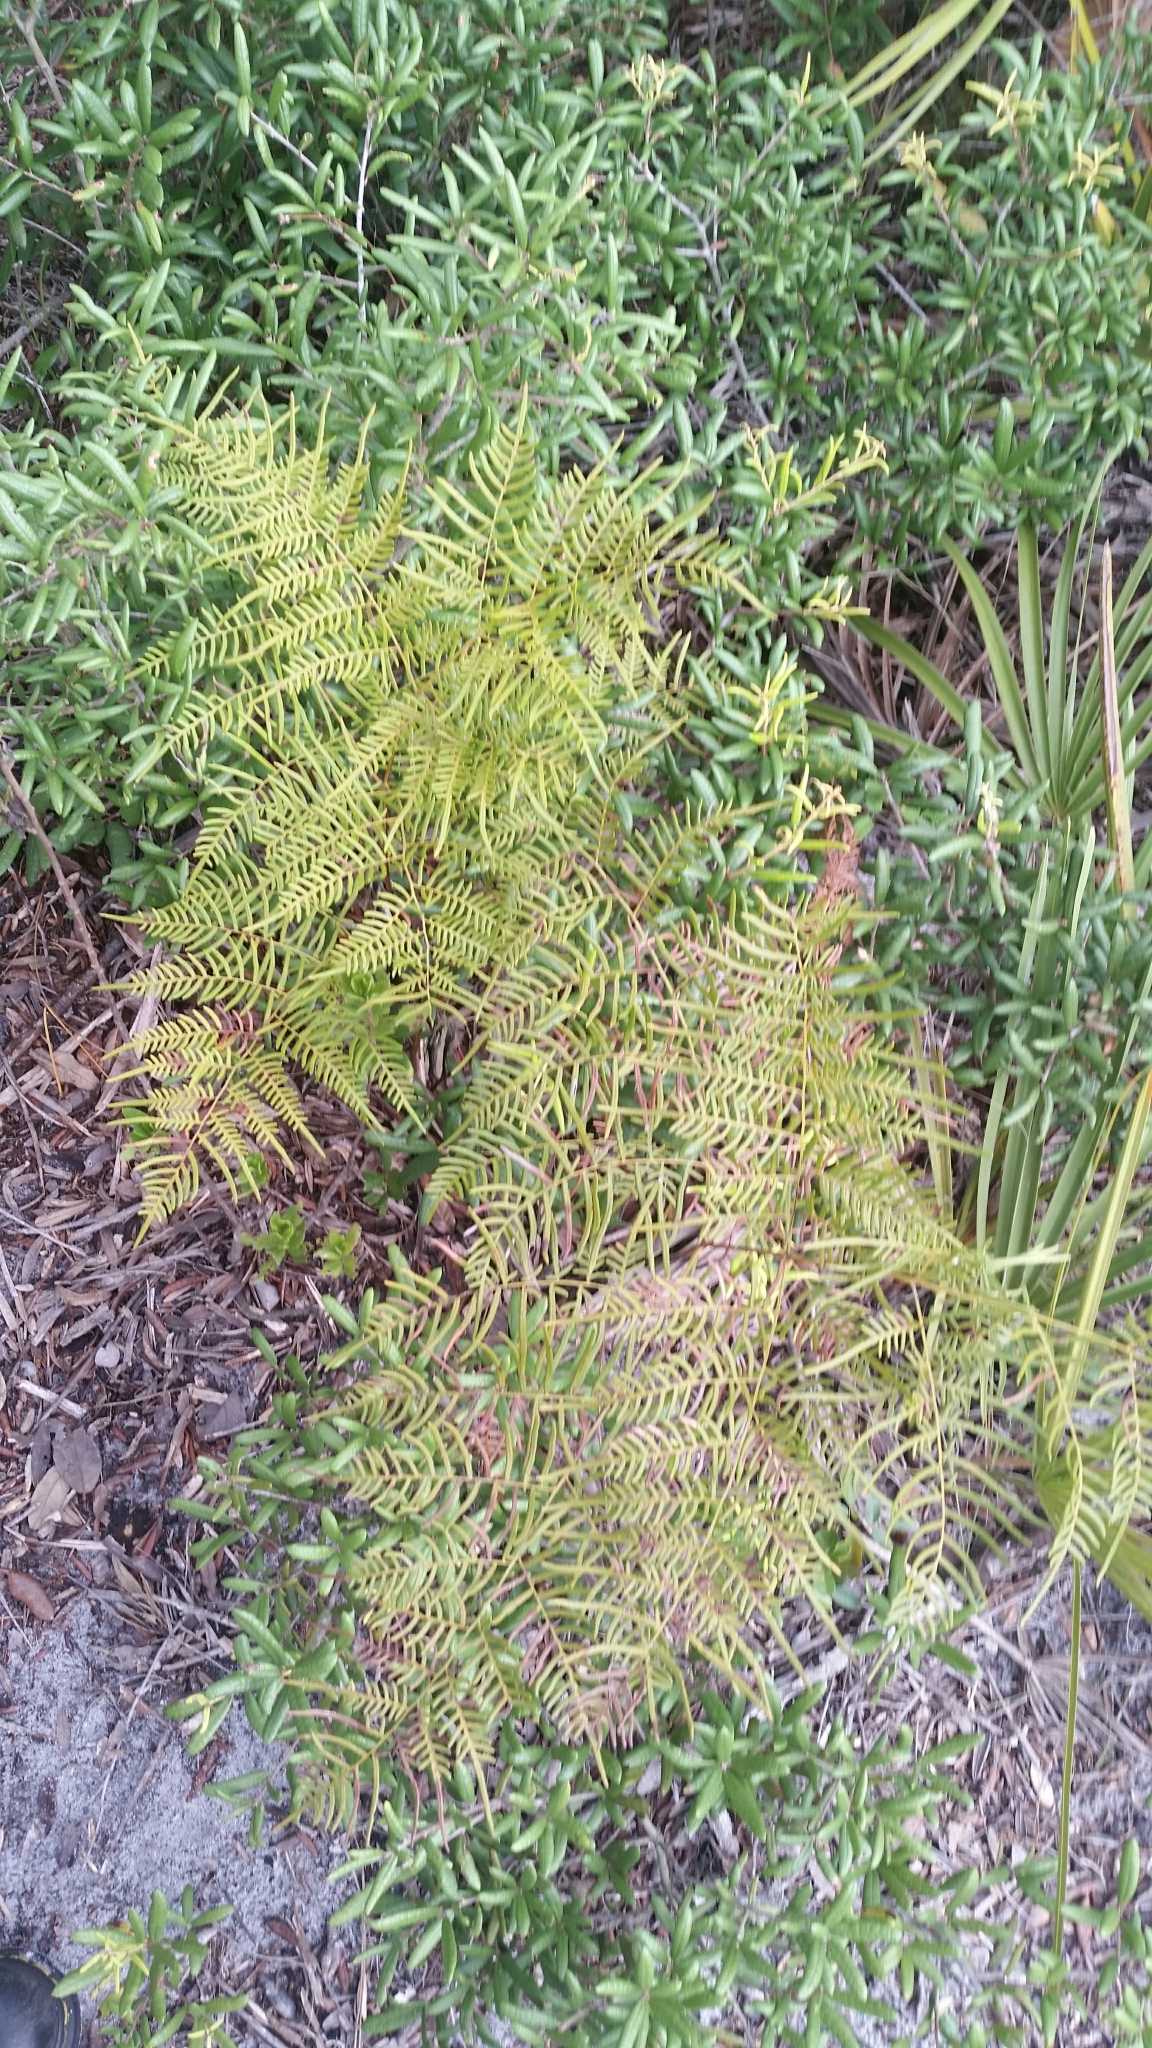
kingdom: Plantae
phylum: Tracheophyta
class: Polypodiopsida
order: Polypodiales
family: Dennstaedtiaceae
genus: Pteridium
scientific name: Pteridium caudatum
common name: Southern bracken fern
